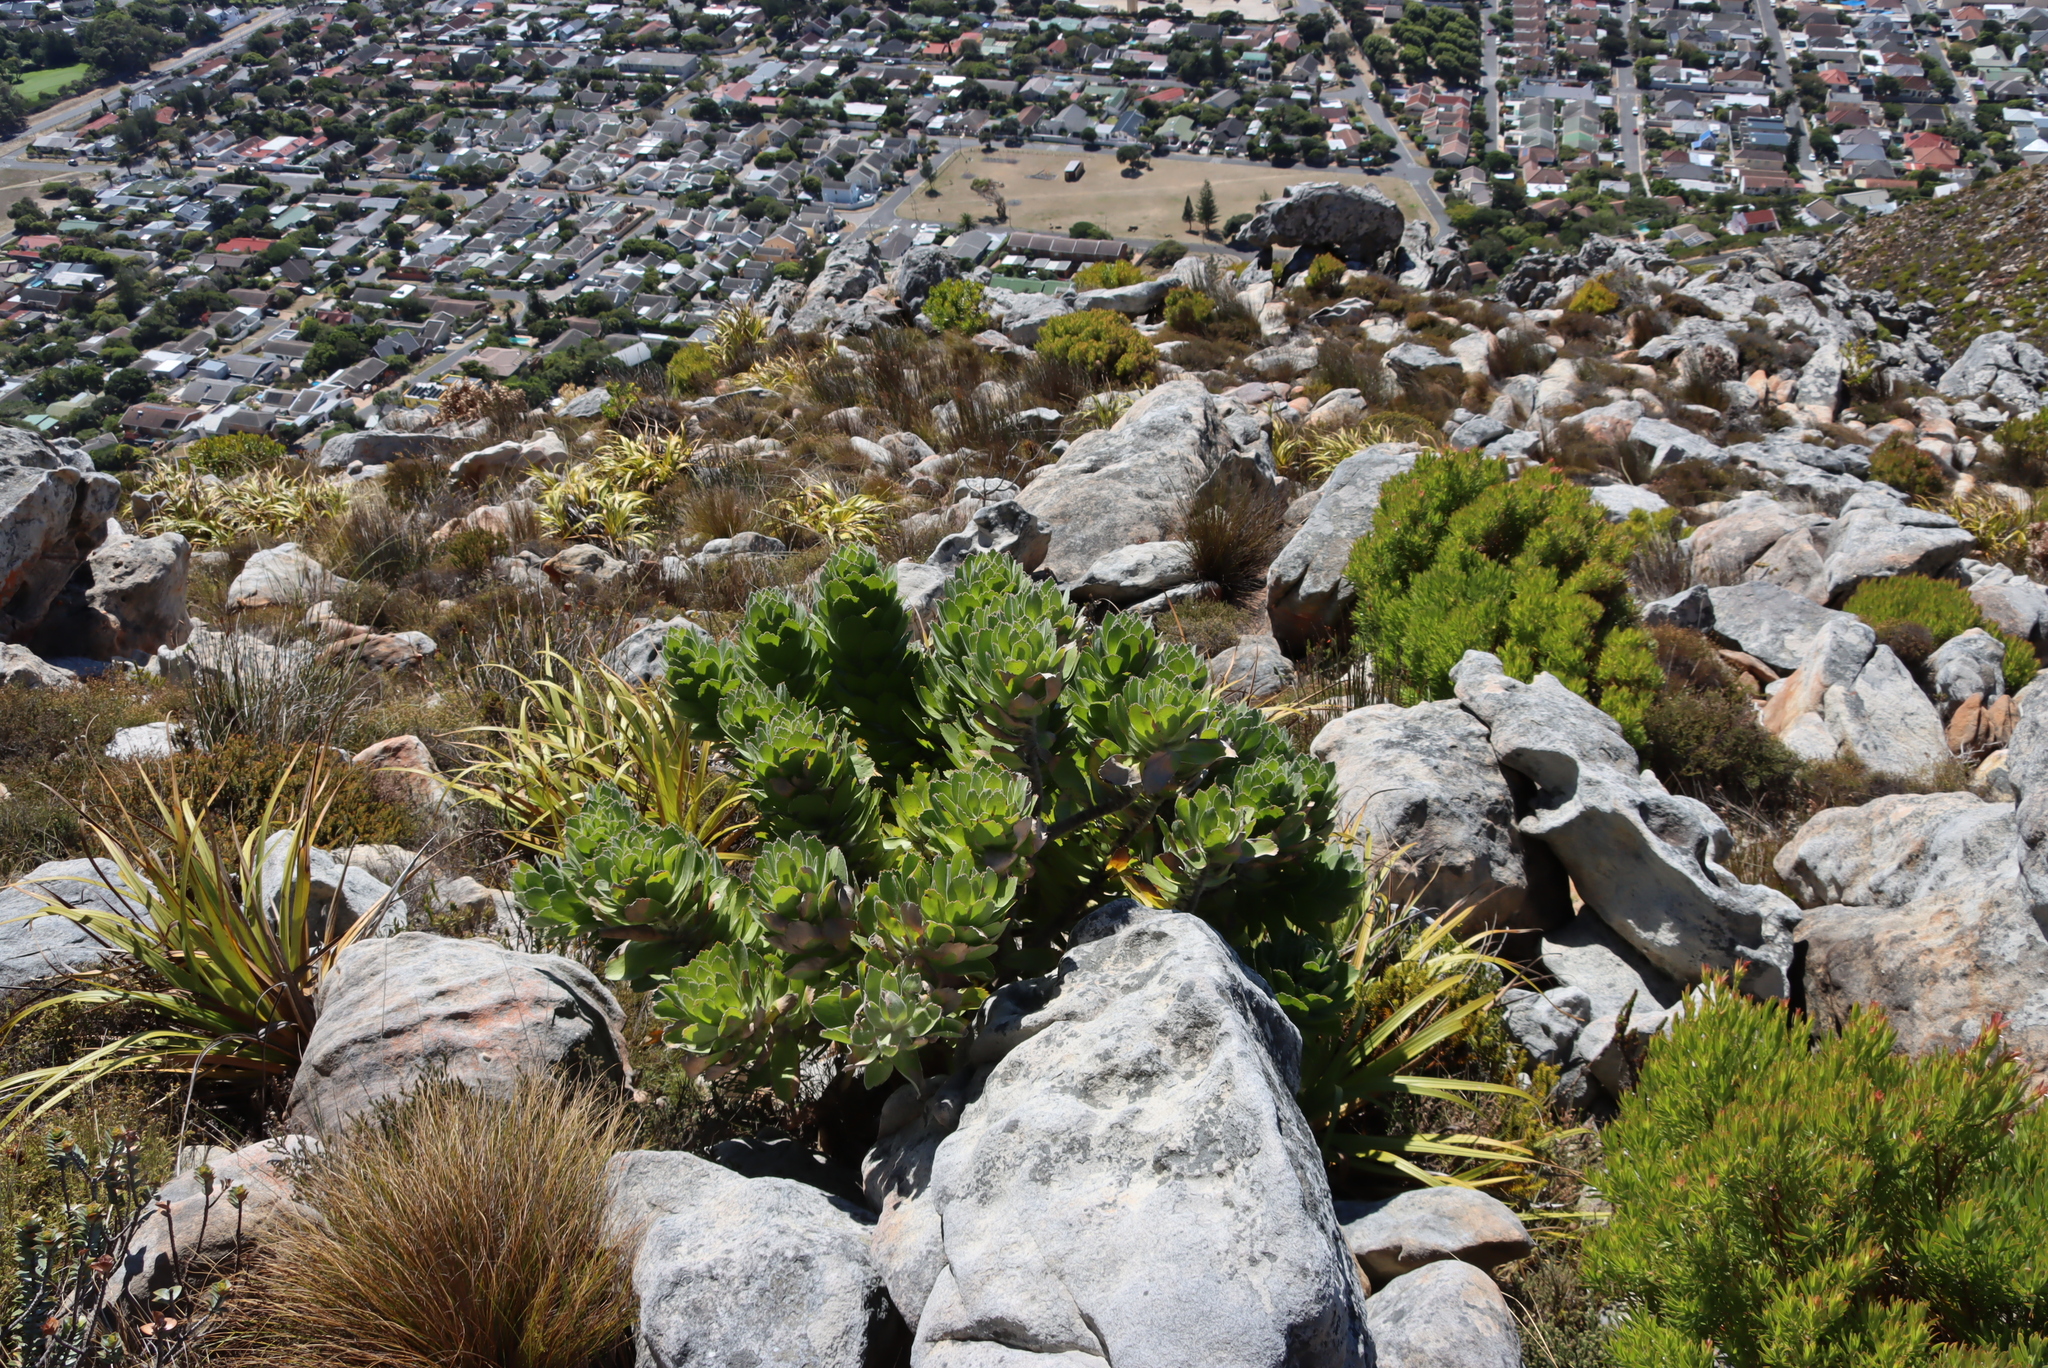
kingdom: Plantae
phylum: Tracheophyta
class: Liliopsida
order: Poales
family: Cyperaceae
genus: Tetraria
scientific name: Tetraria thermalis
